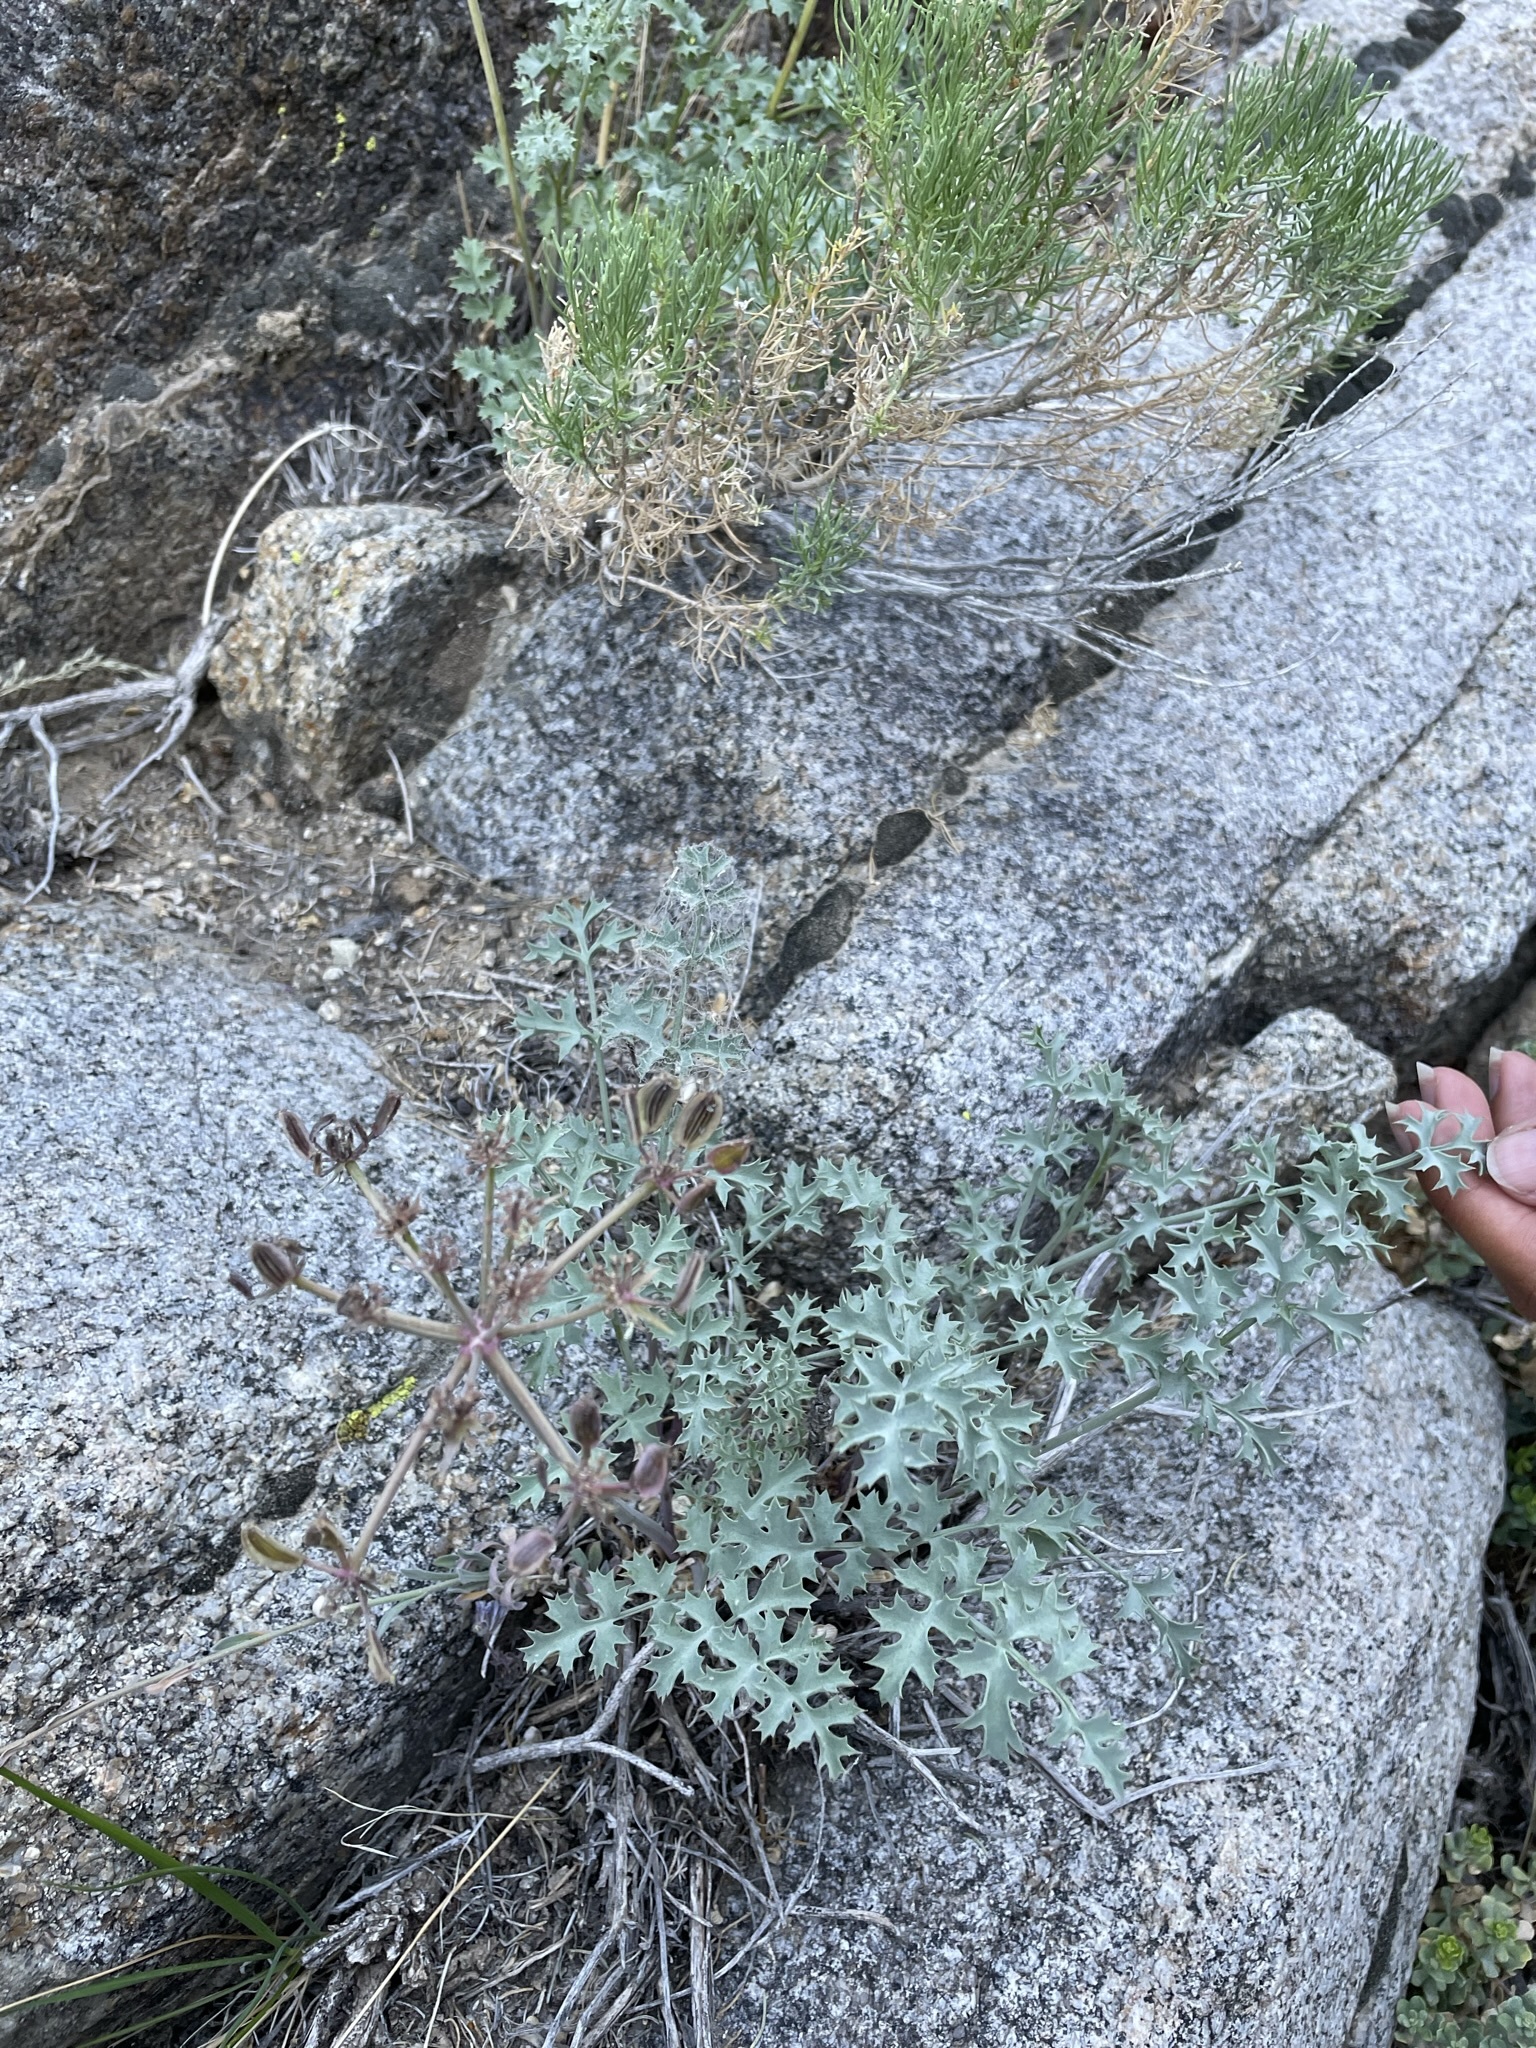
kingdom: Plantae
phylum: Tracheophyta
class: Magnoliopsida
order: Apiales
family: Apiaceae
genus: Lomatium
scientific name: Lomatium rigidum
